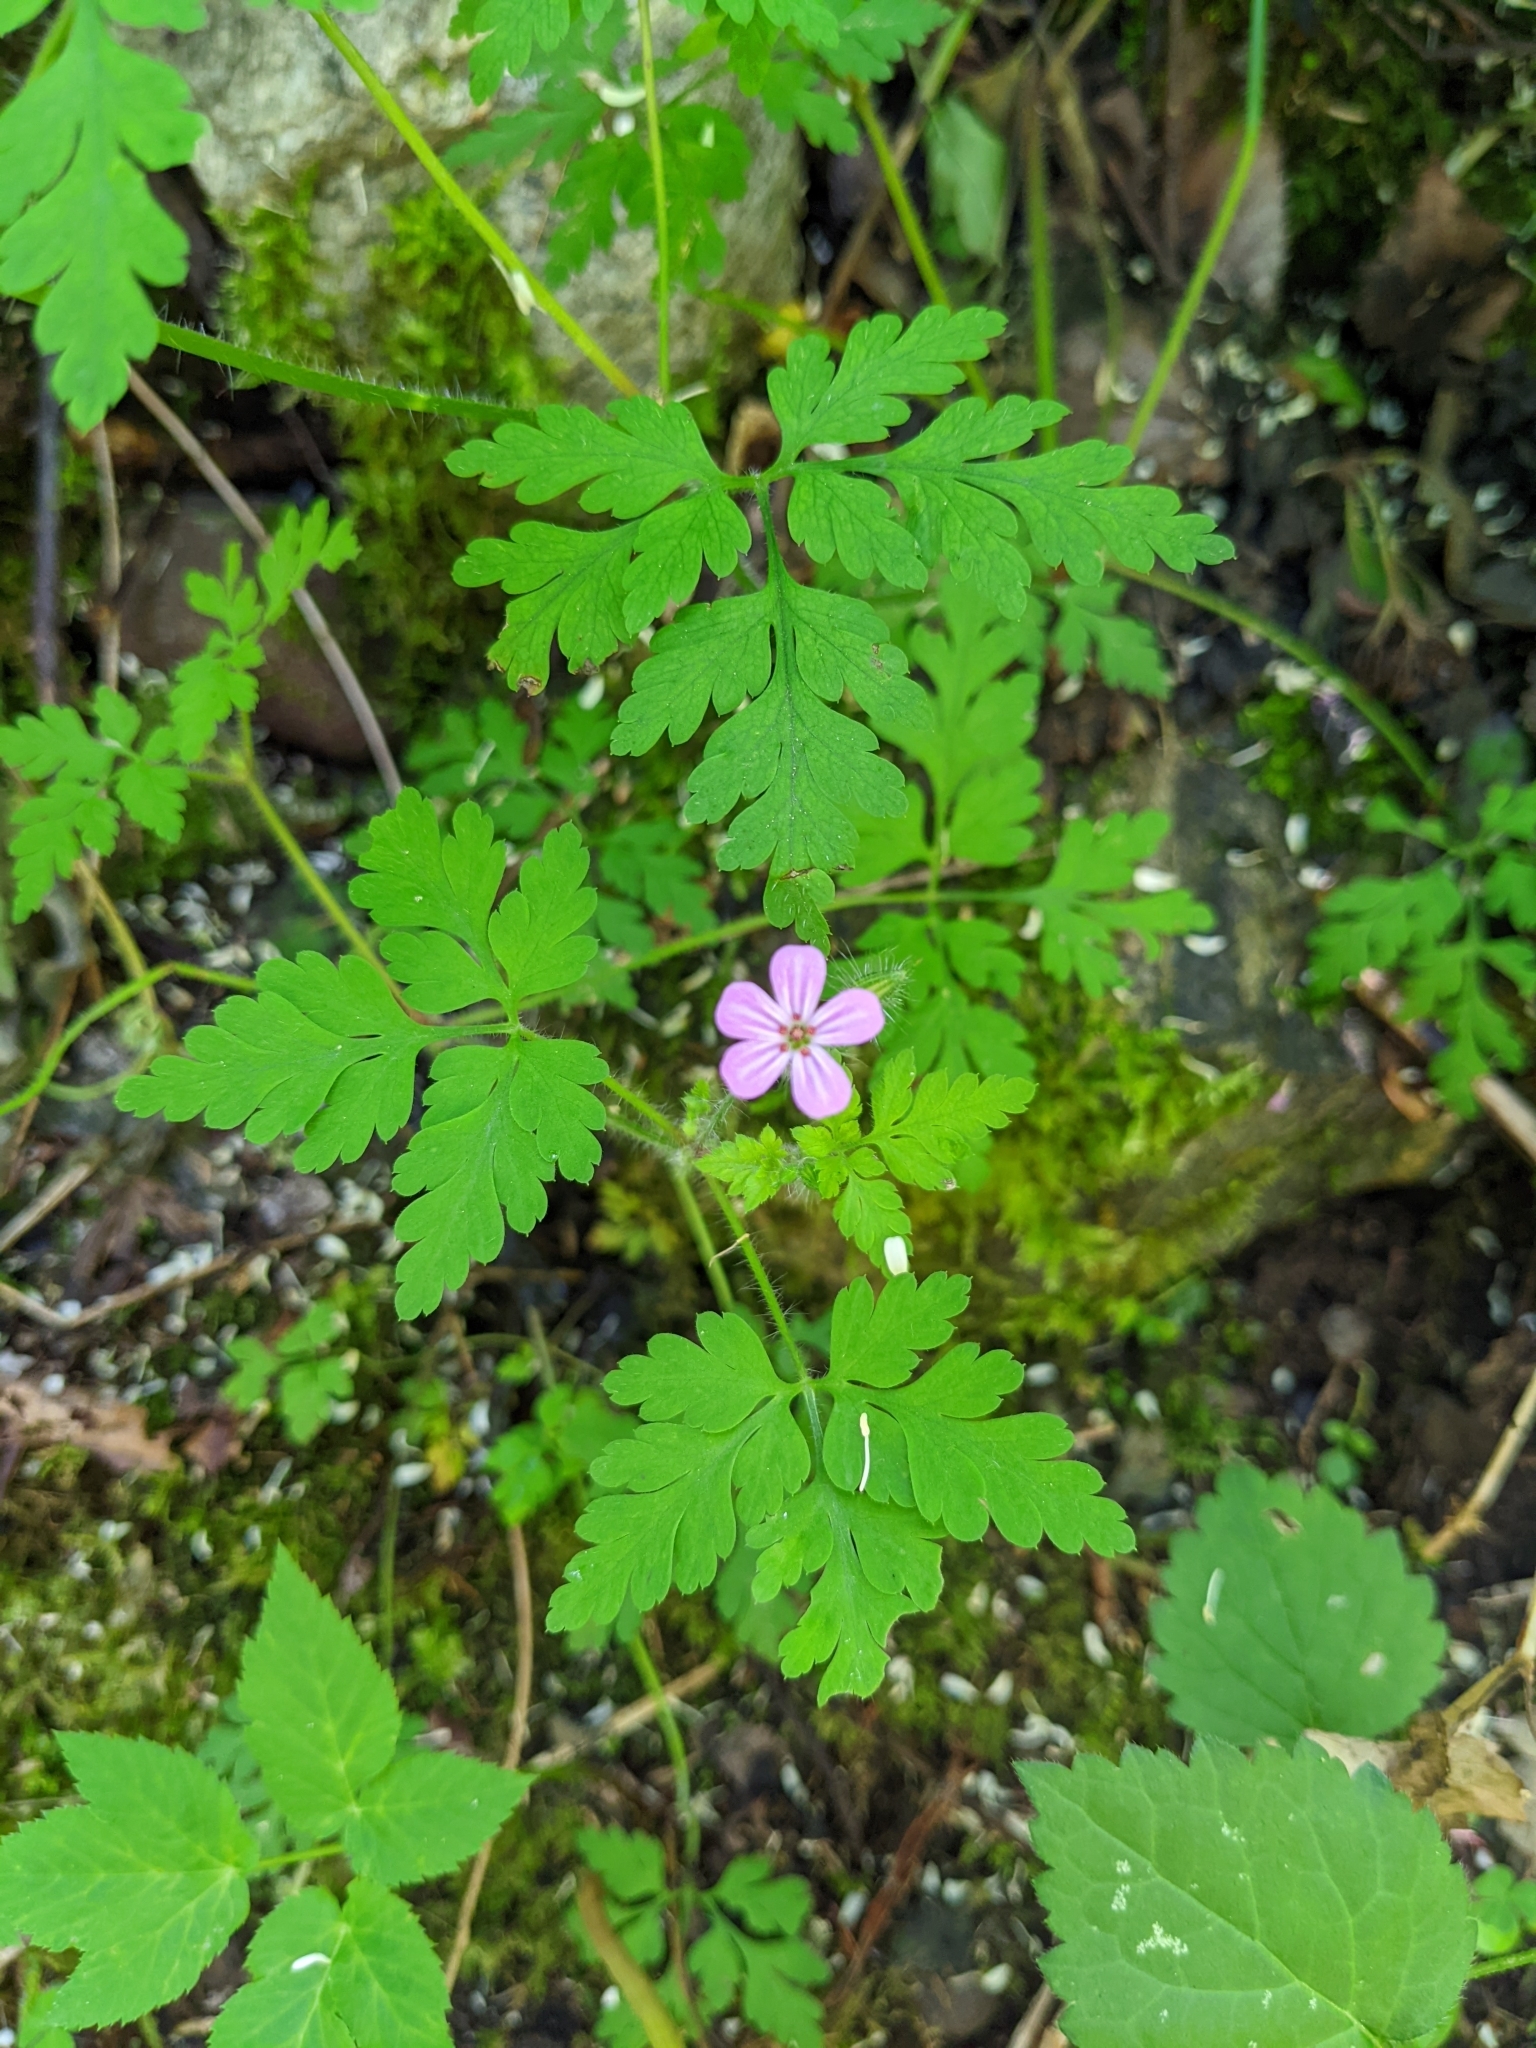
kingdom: Plantae
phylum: Tracheophyta
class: Magnoliopsida
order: Geraniales
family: Geraniaceae
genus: Geranium
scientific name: Geranium robertianum
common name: Herb-robert
